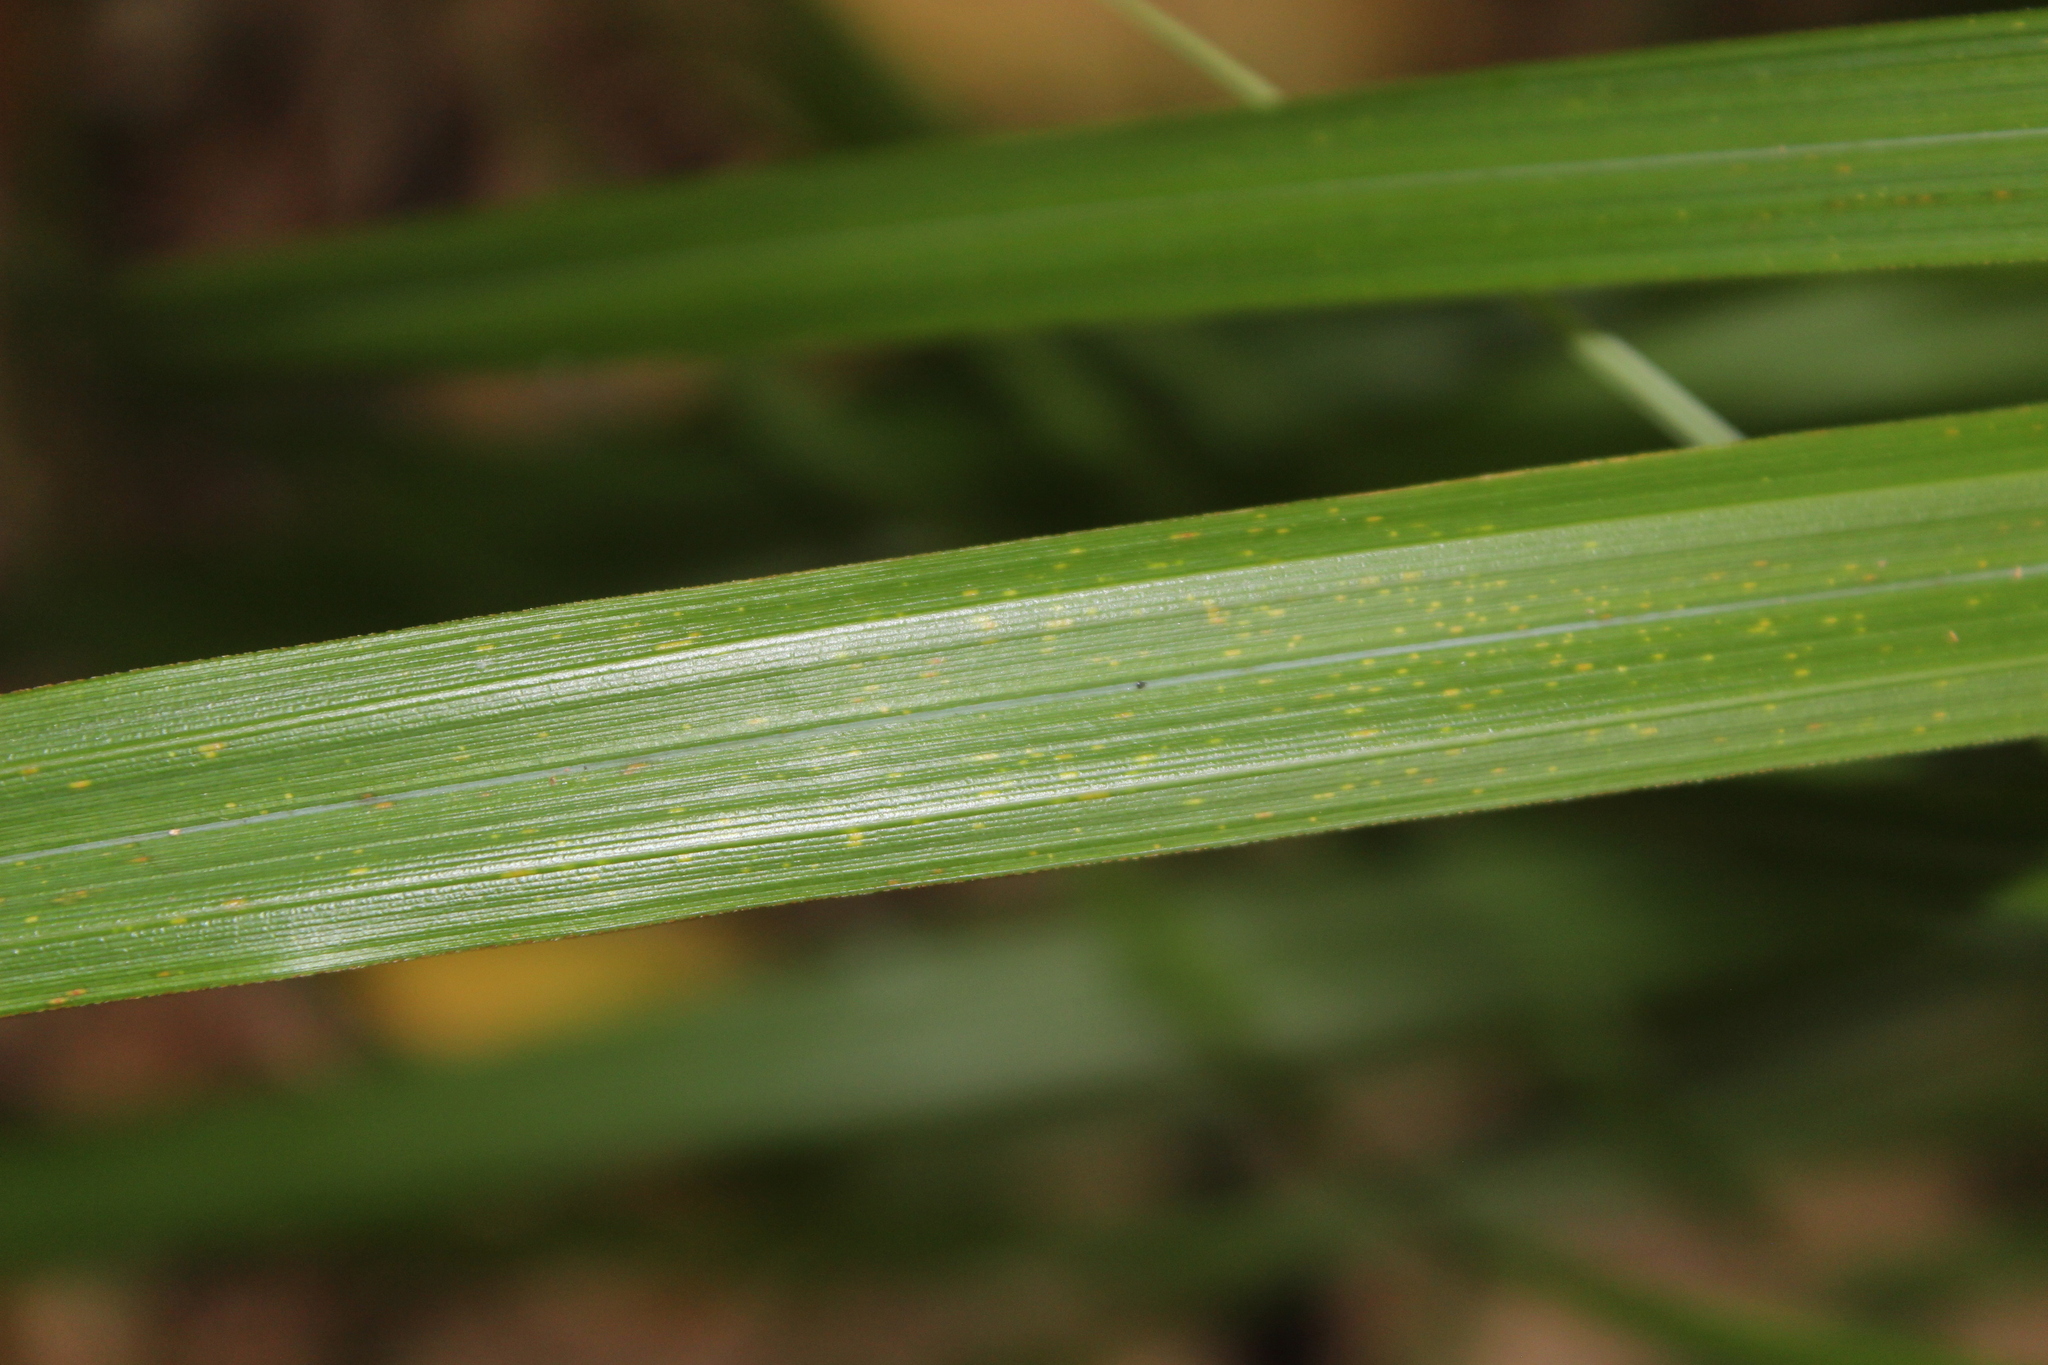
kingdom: Plantae
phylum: Tracheophyta
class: Liliopsida
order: Poales
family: Cyperaceae
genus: Carex
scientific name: Carex ventosa
